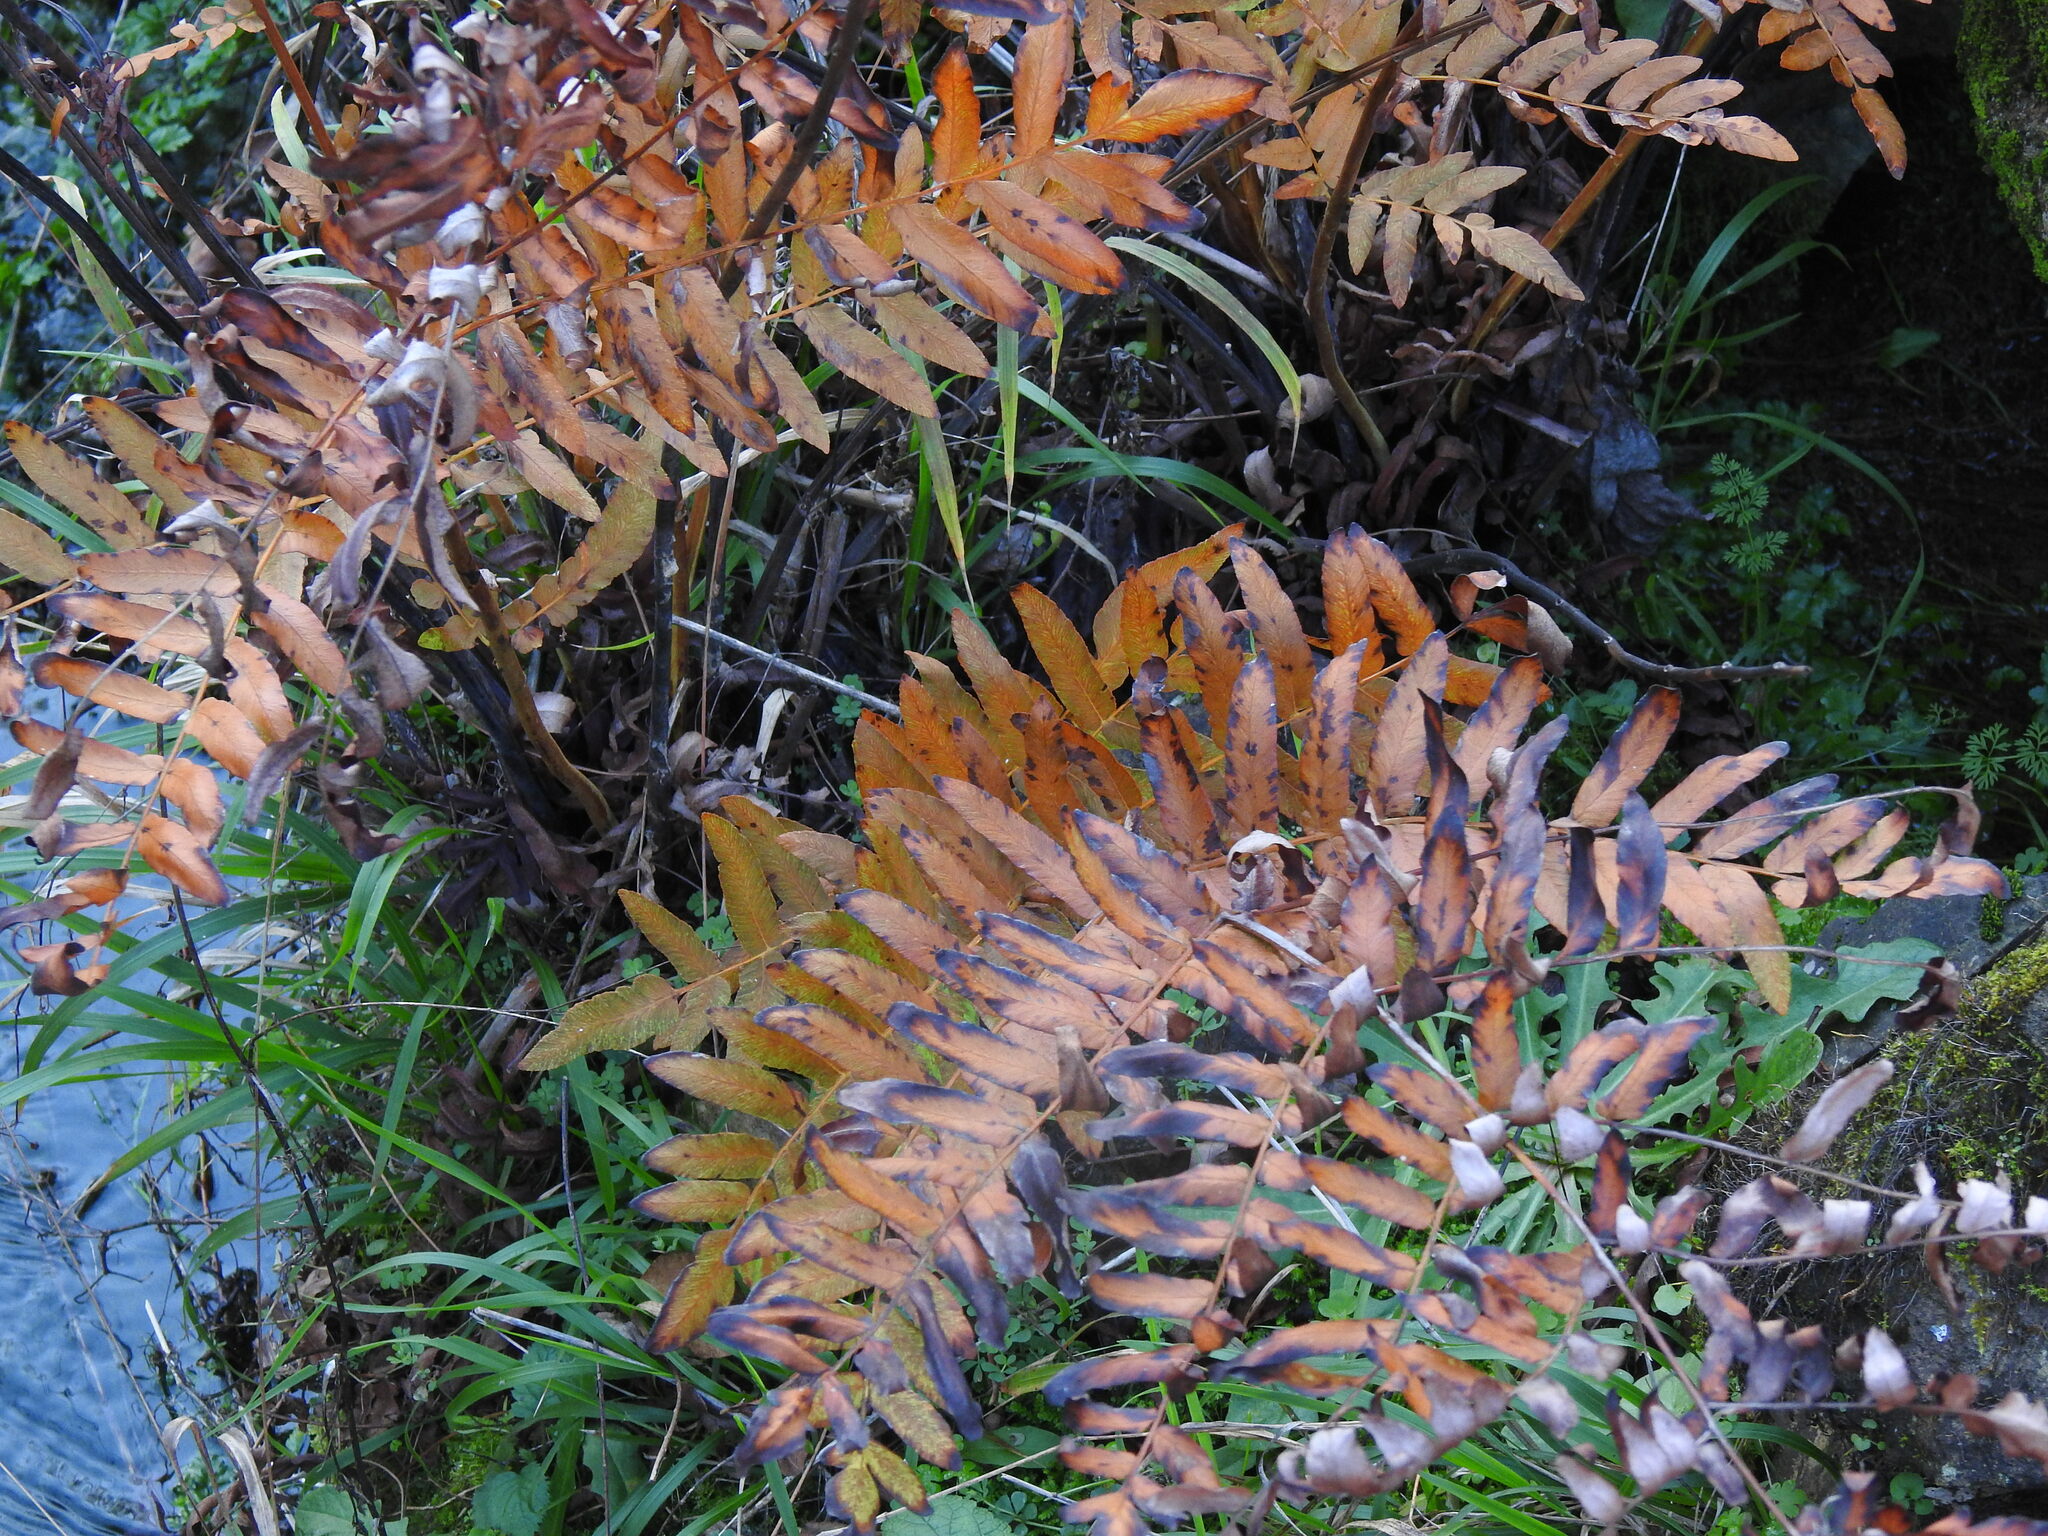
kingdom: Plantae
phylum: Tracheophyta
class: Polypodiopsida
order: Osmundales
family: Osmundaceae
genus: Osmunda
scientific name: Osmunda regalis
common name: Royal fern
